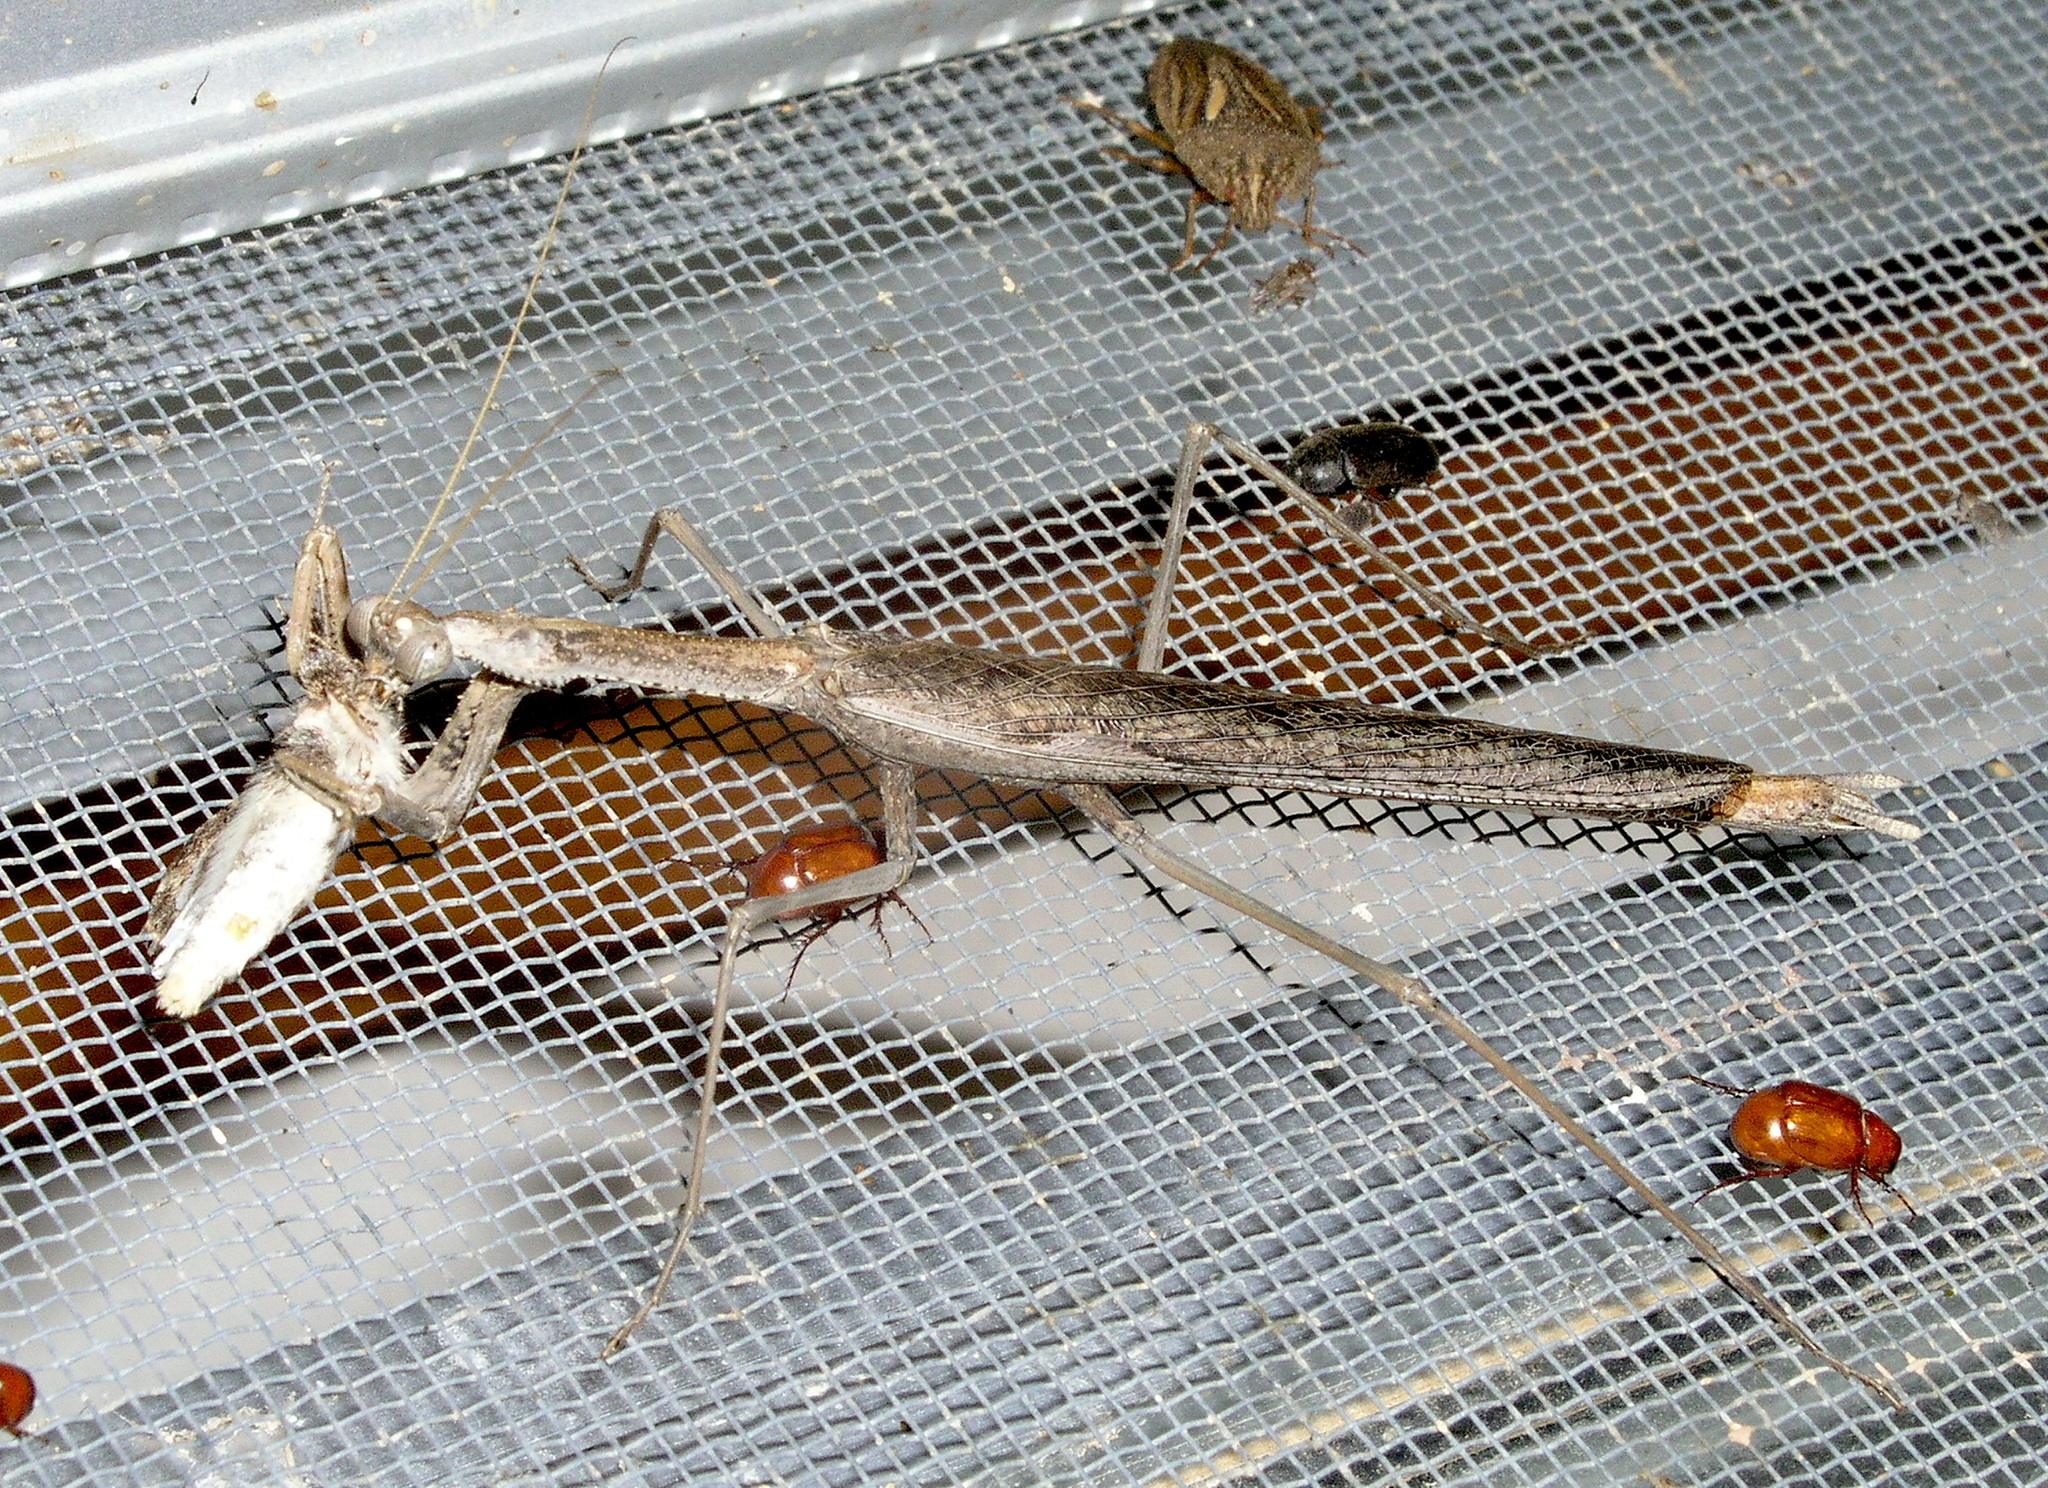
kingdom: Animalia
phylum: Arthropoda
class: Insecta
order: Mantodea
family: Mantidae
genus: Coenomantis
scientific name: Coenomantis kraussiana
